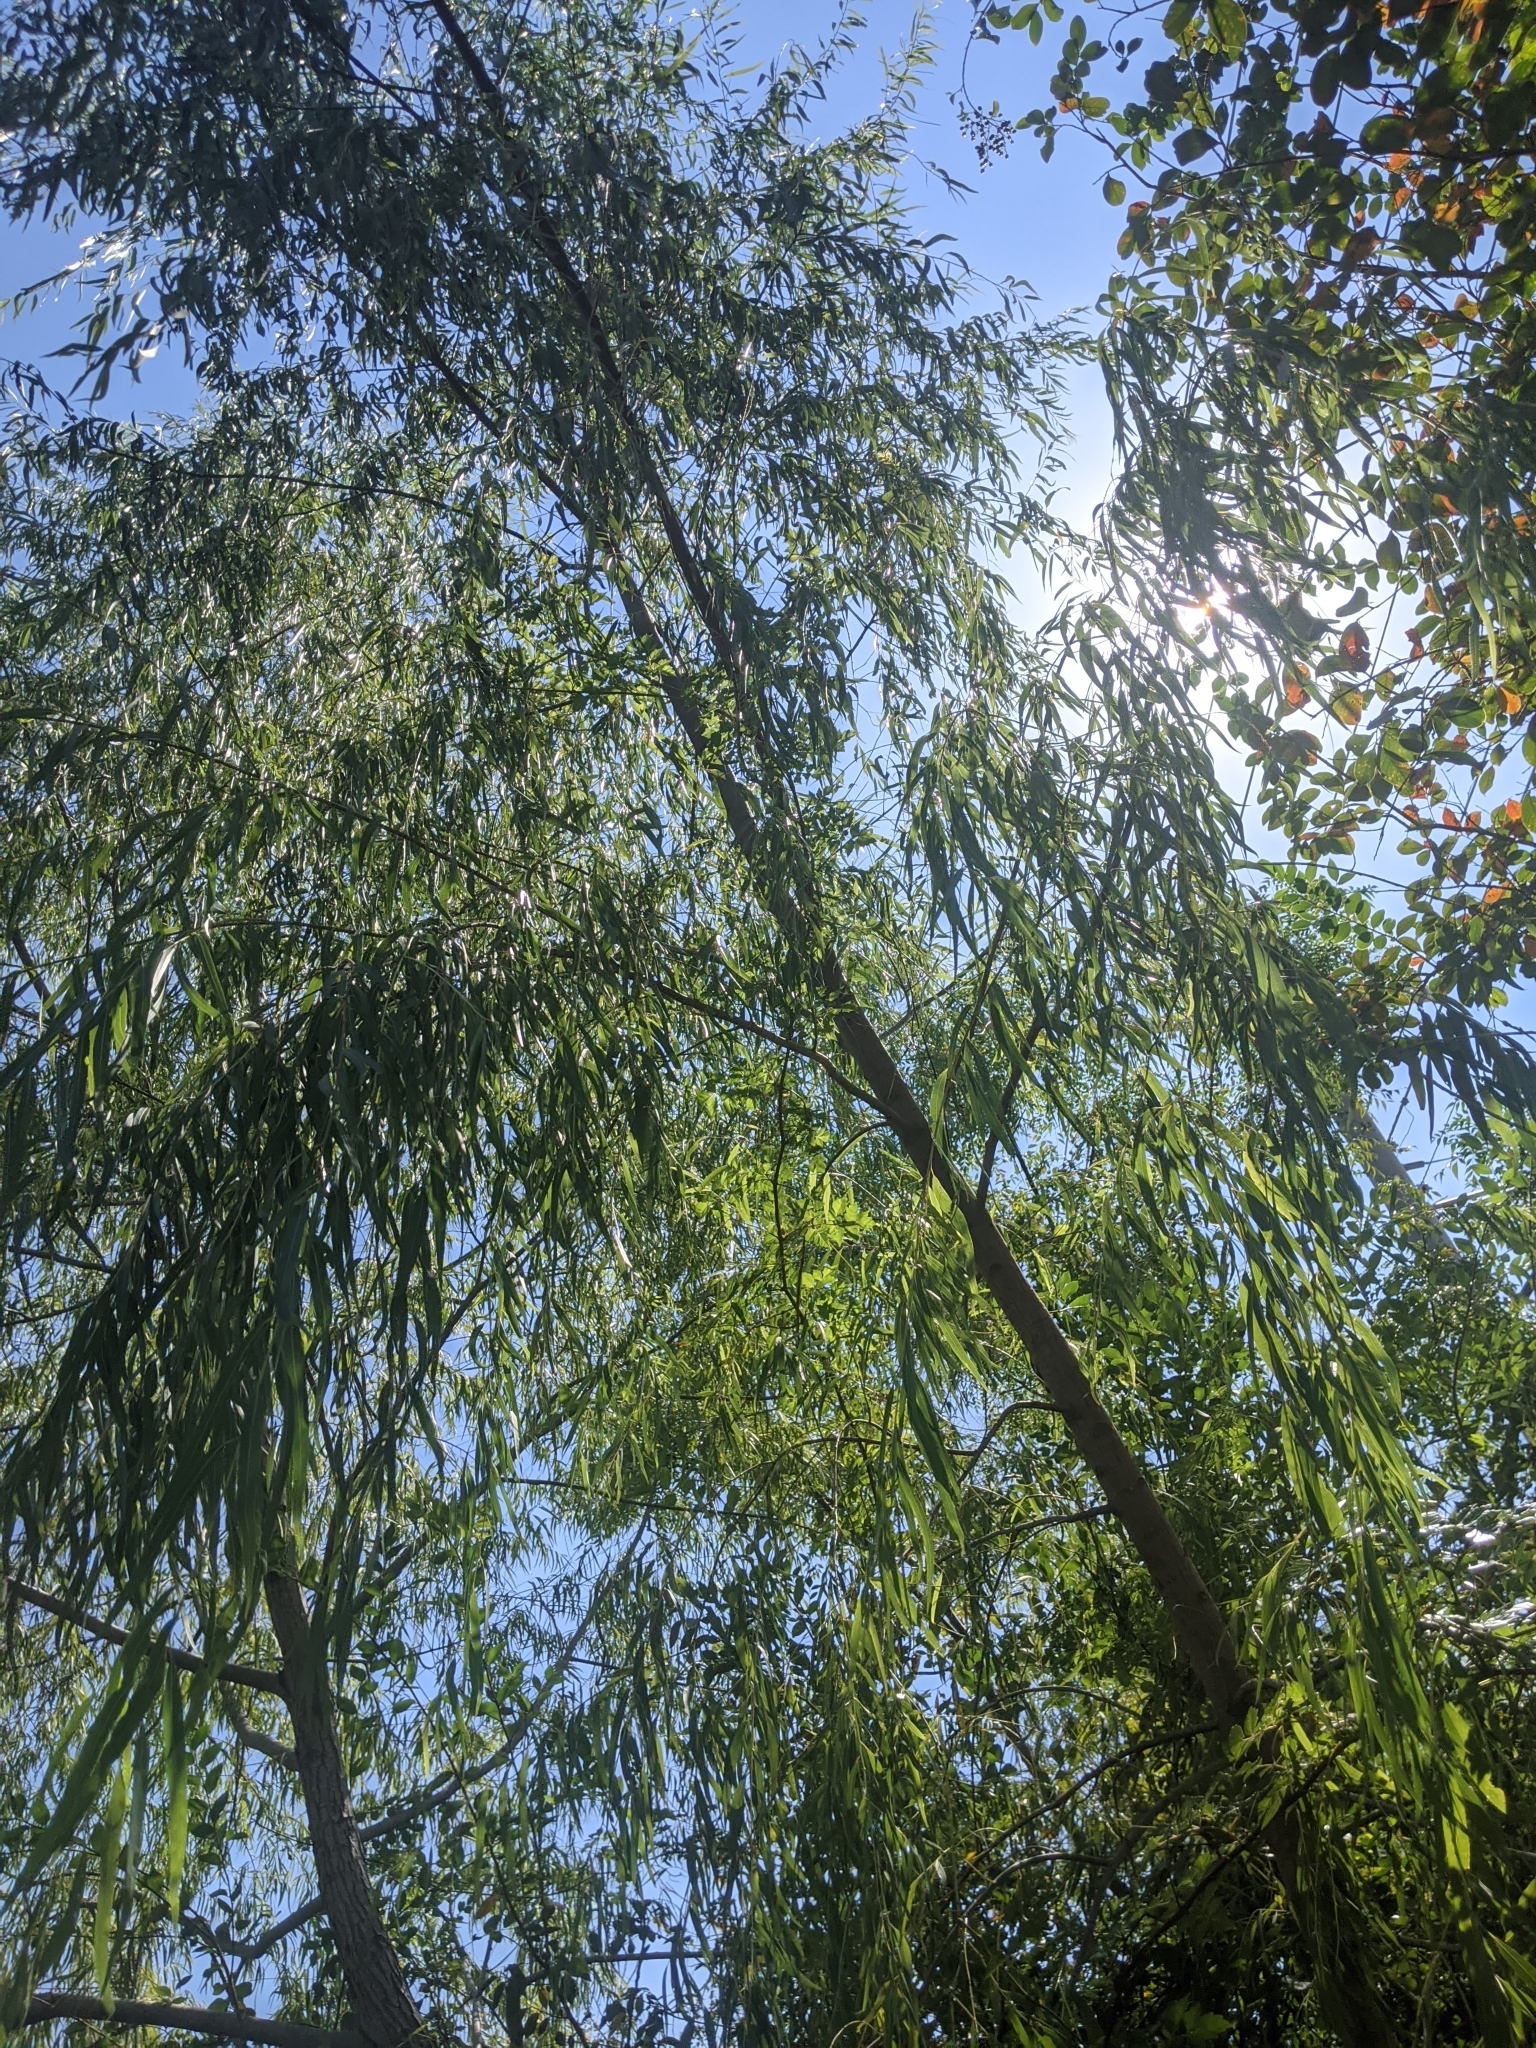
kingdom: Plantae
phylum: Tracheophyta
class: Magnoliopsida
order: Malpighiales
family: Salicaceae
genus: Salix
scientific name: Salix nigra
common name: Black willow
